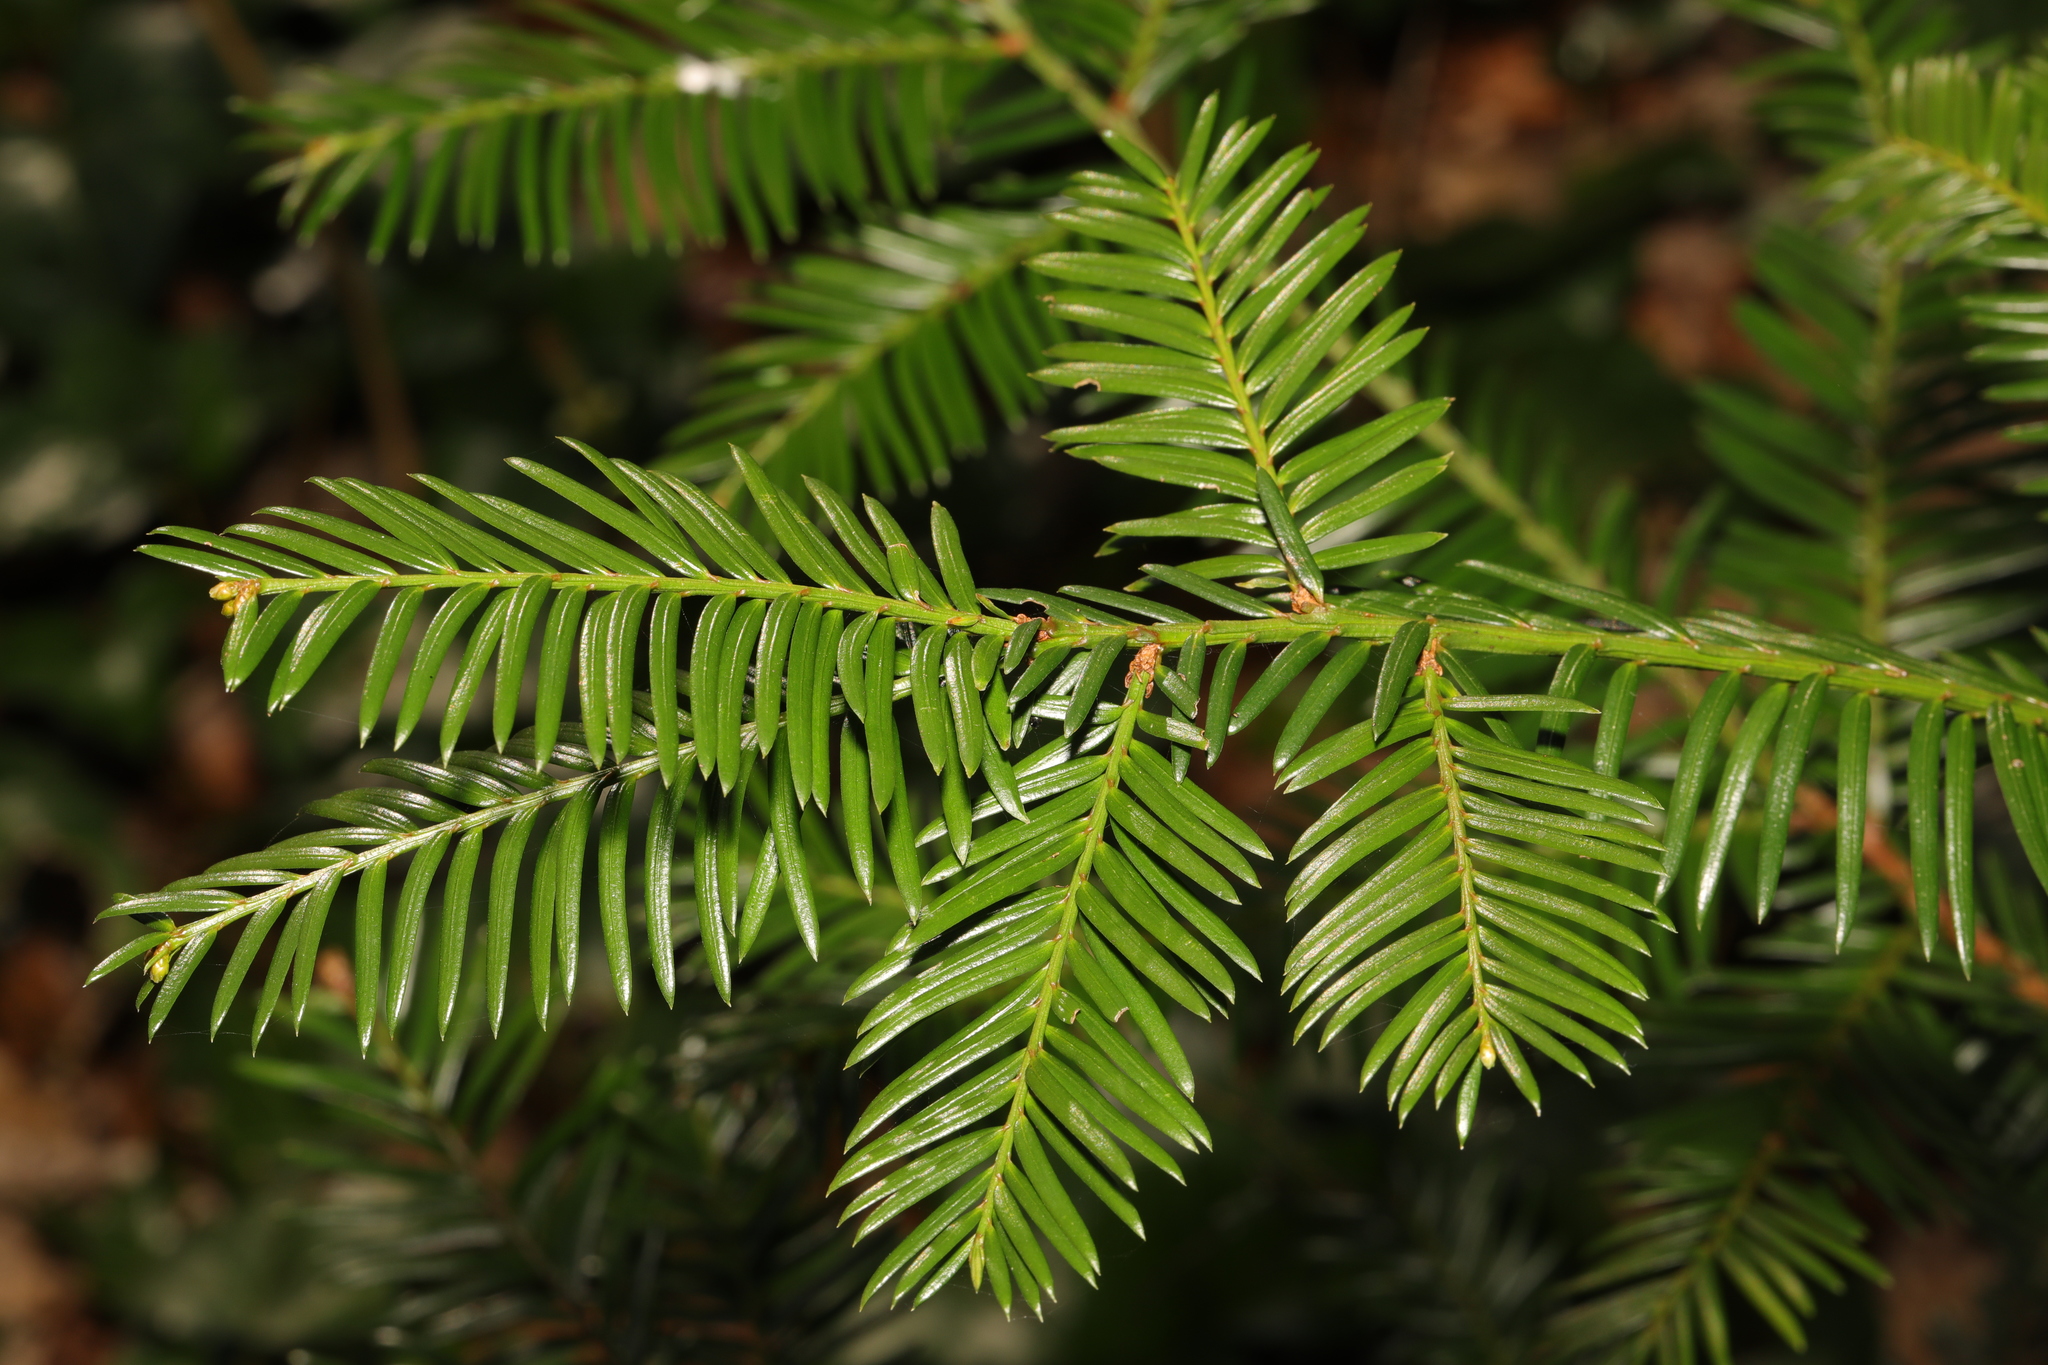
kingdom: Plantae
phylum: Tracheophyta
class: Pinopsida
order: Pinales
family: Taxaceae
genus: Taxus
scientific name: Taxus baccata
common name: Yew
